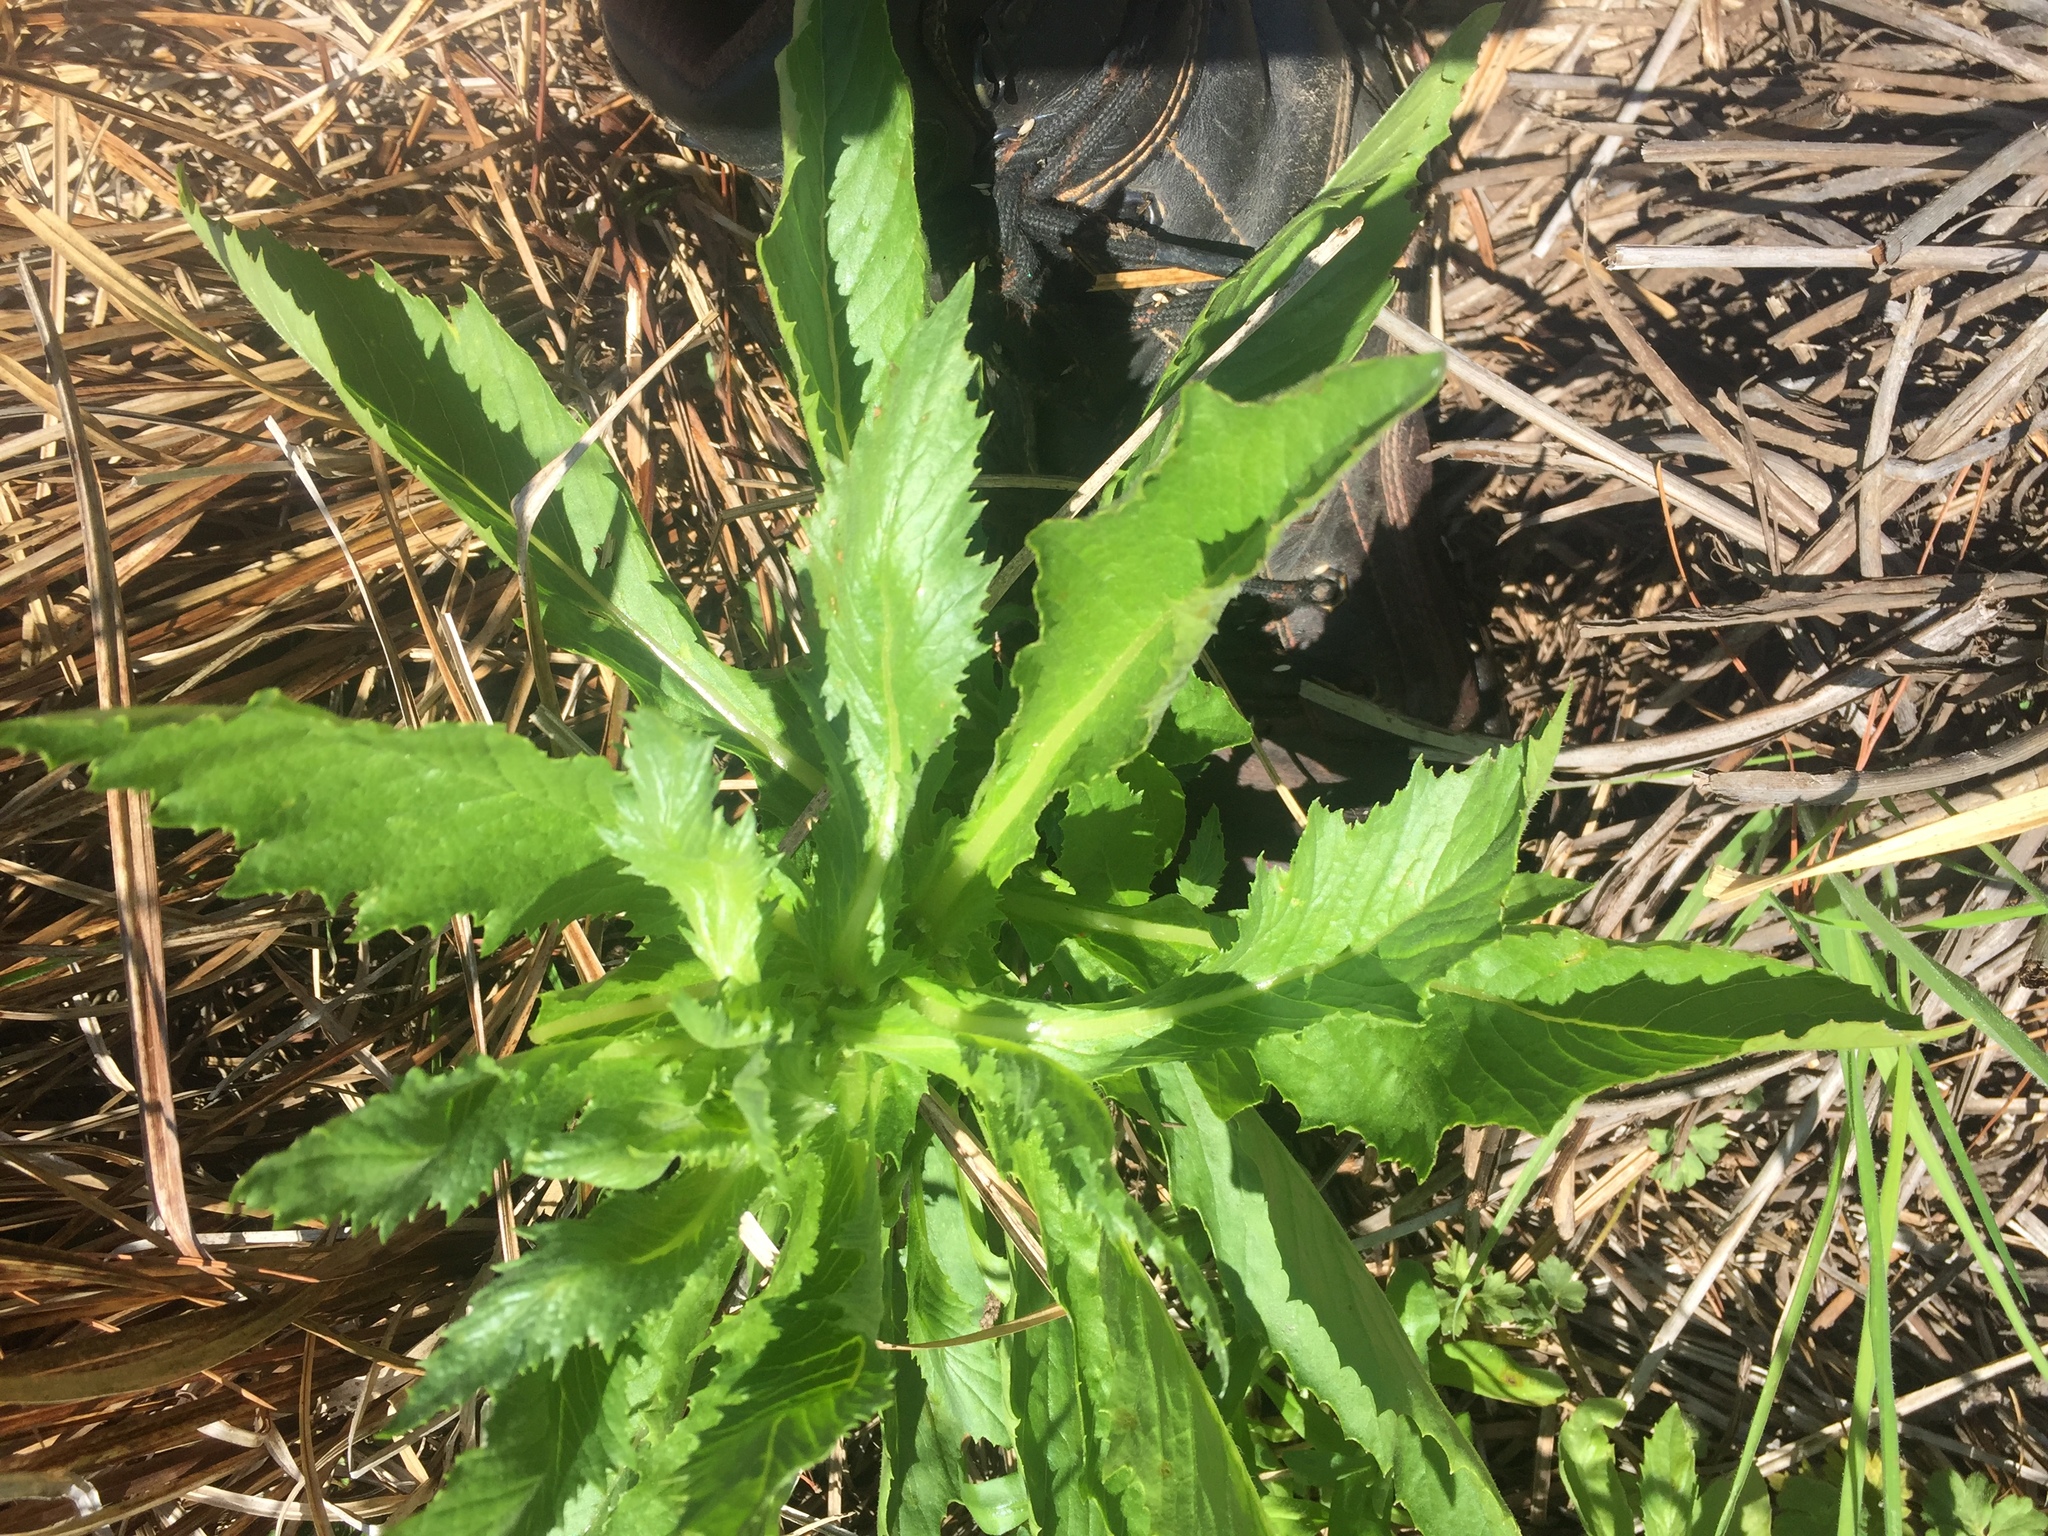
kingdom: Plantae
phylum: Tracheophyta
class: Magnoliopsida
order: Asterales
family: Asteraceae
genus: Erechtites
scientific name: Erechtites hieraciifolius
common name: American burnweed
